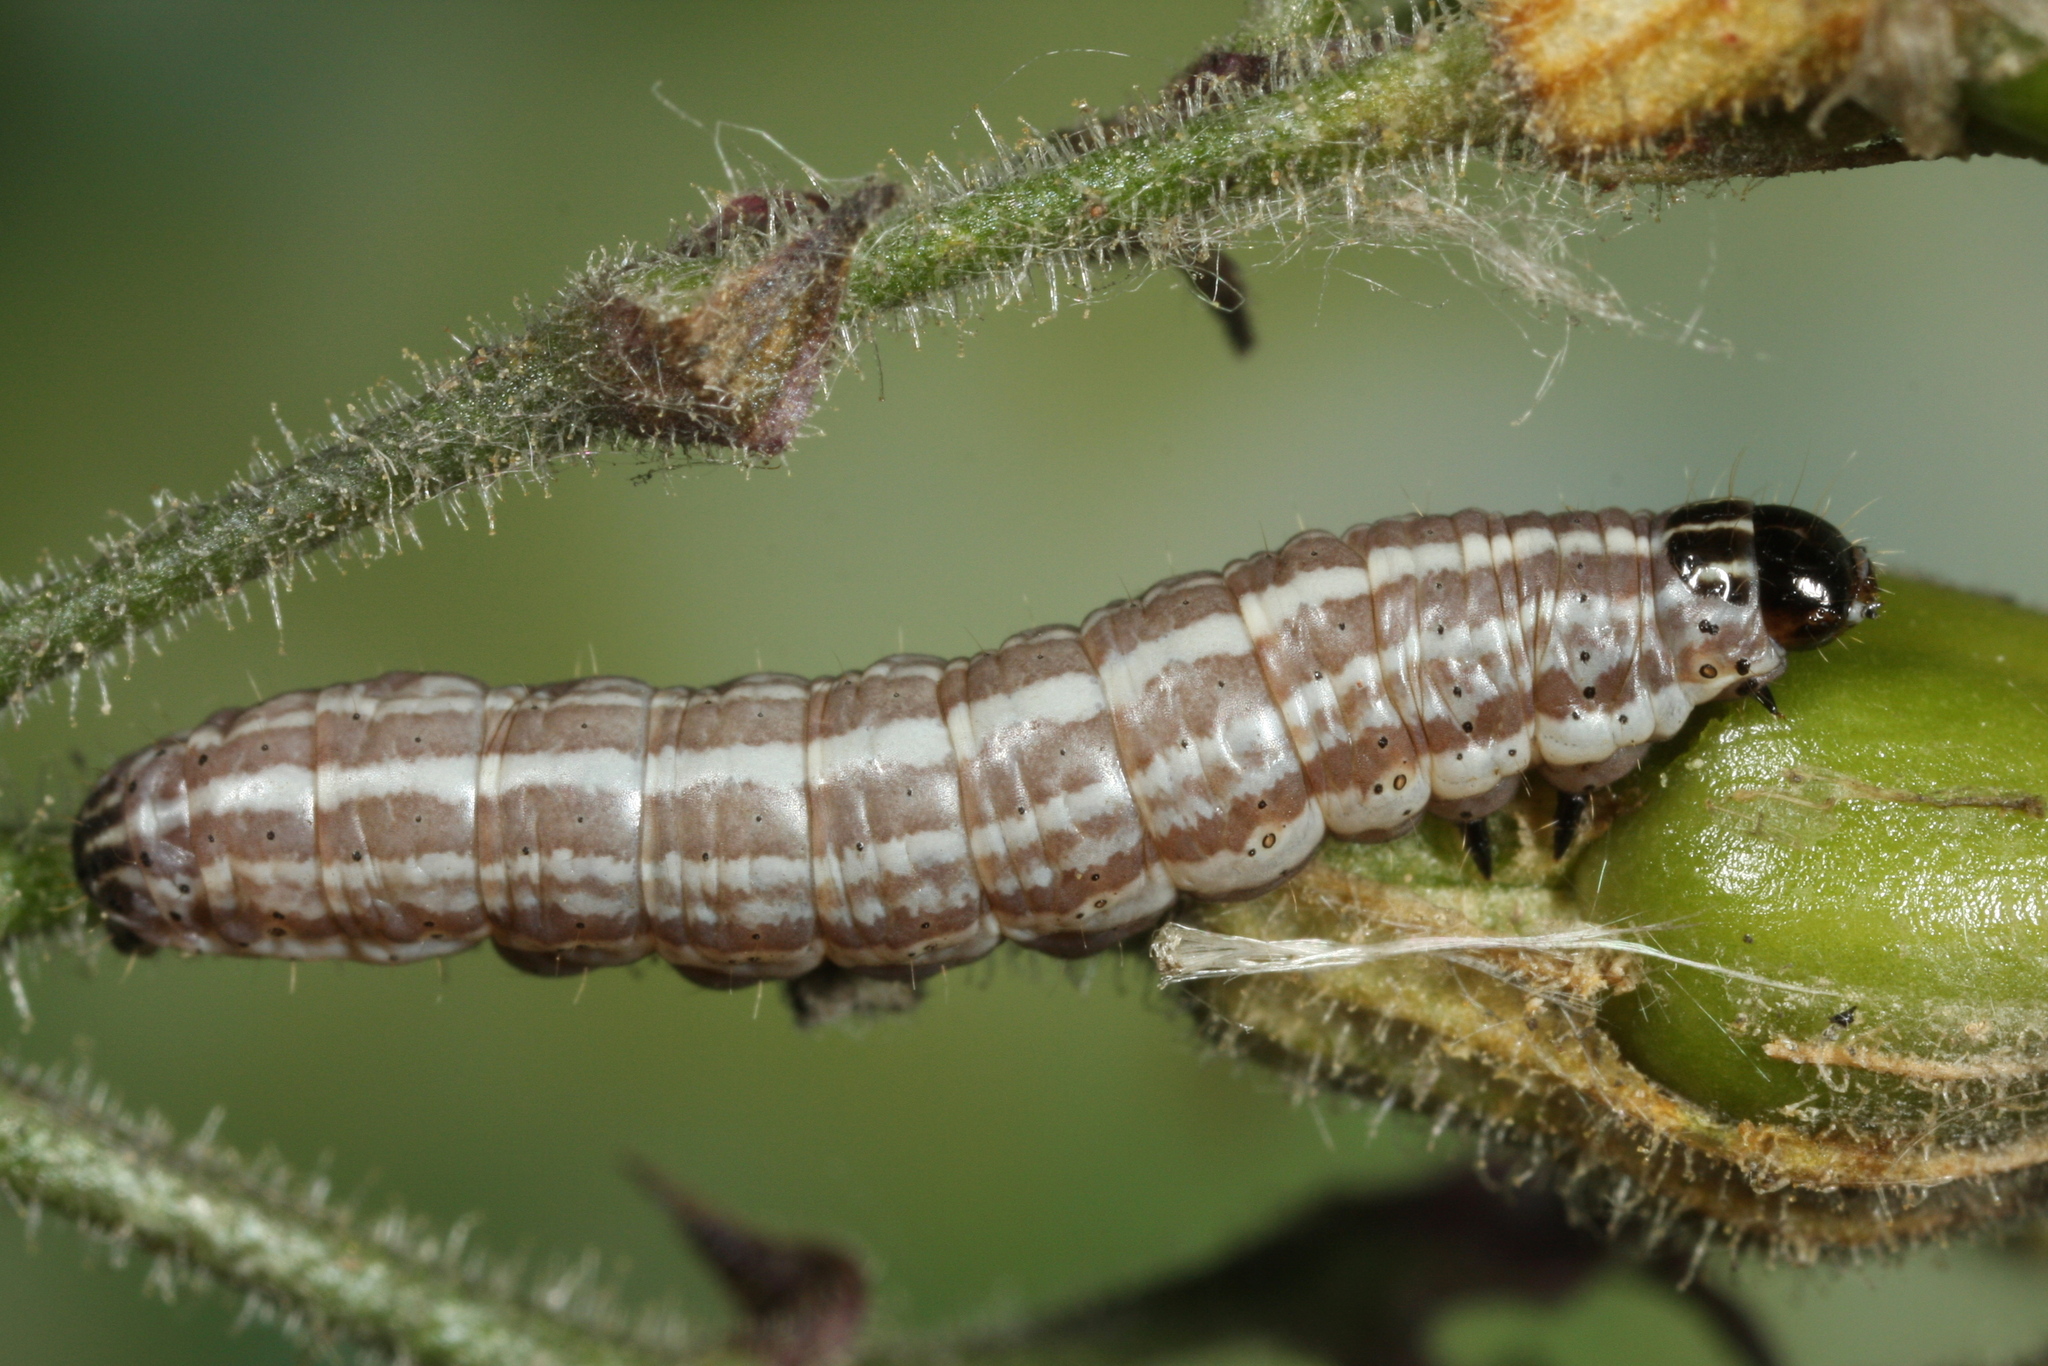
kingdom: Animalia
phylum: Arthropoda
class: Insecta
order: Lepidoptera
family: Noctuidae
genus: Hadena
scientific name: Hadena perplexa
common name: Tawny shears
